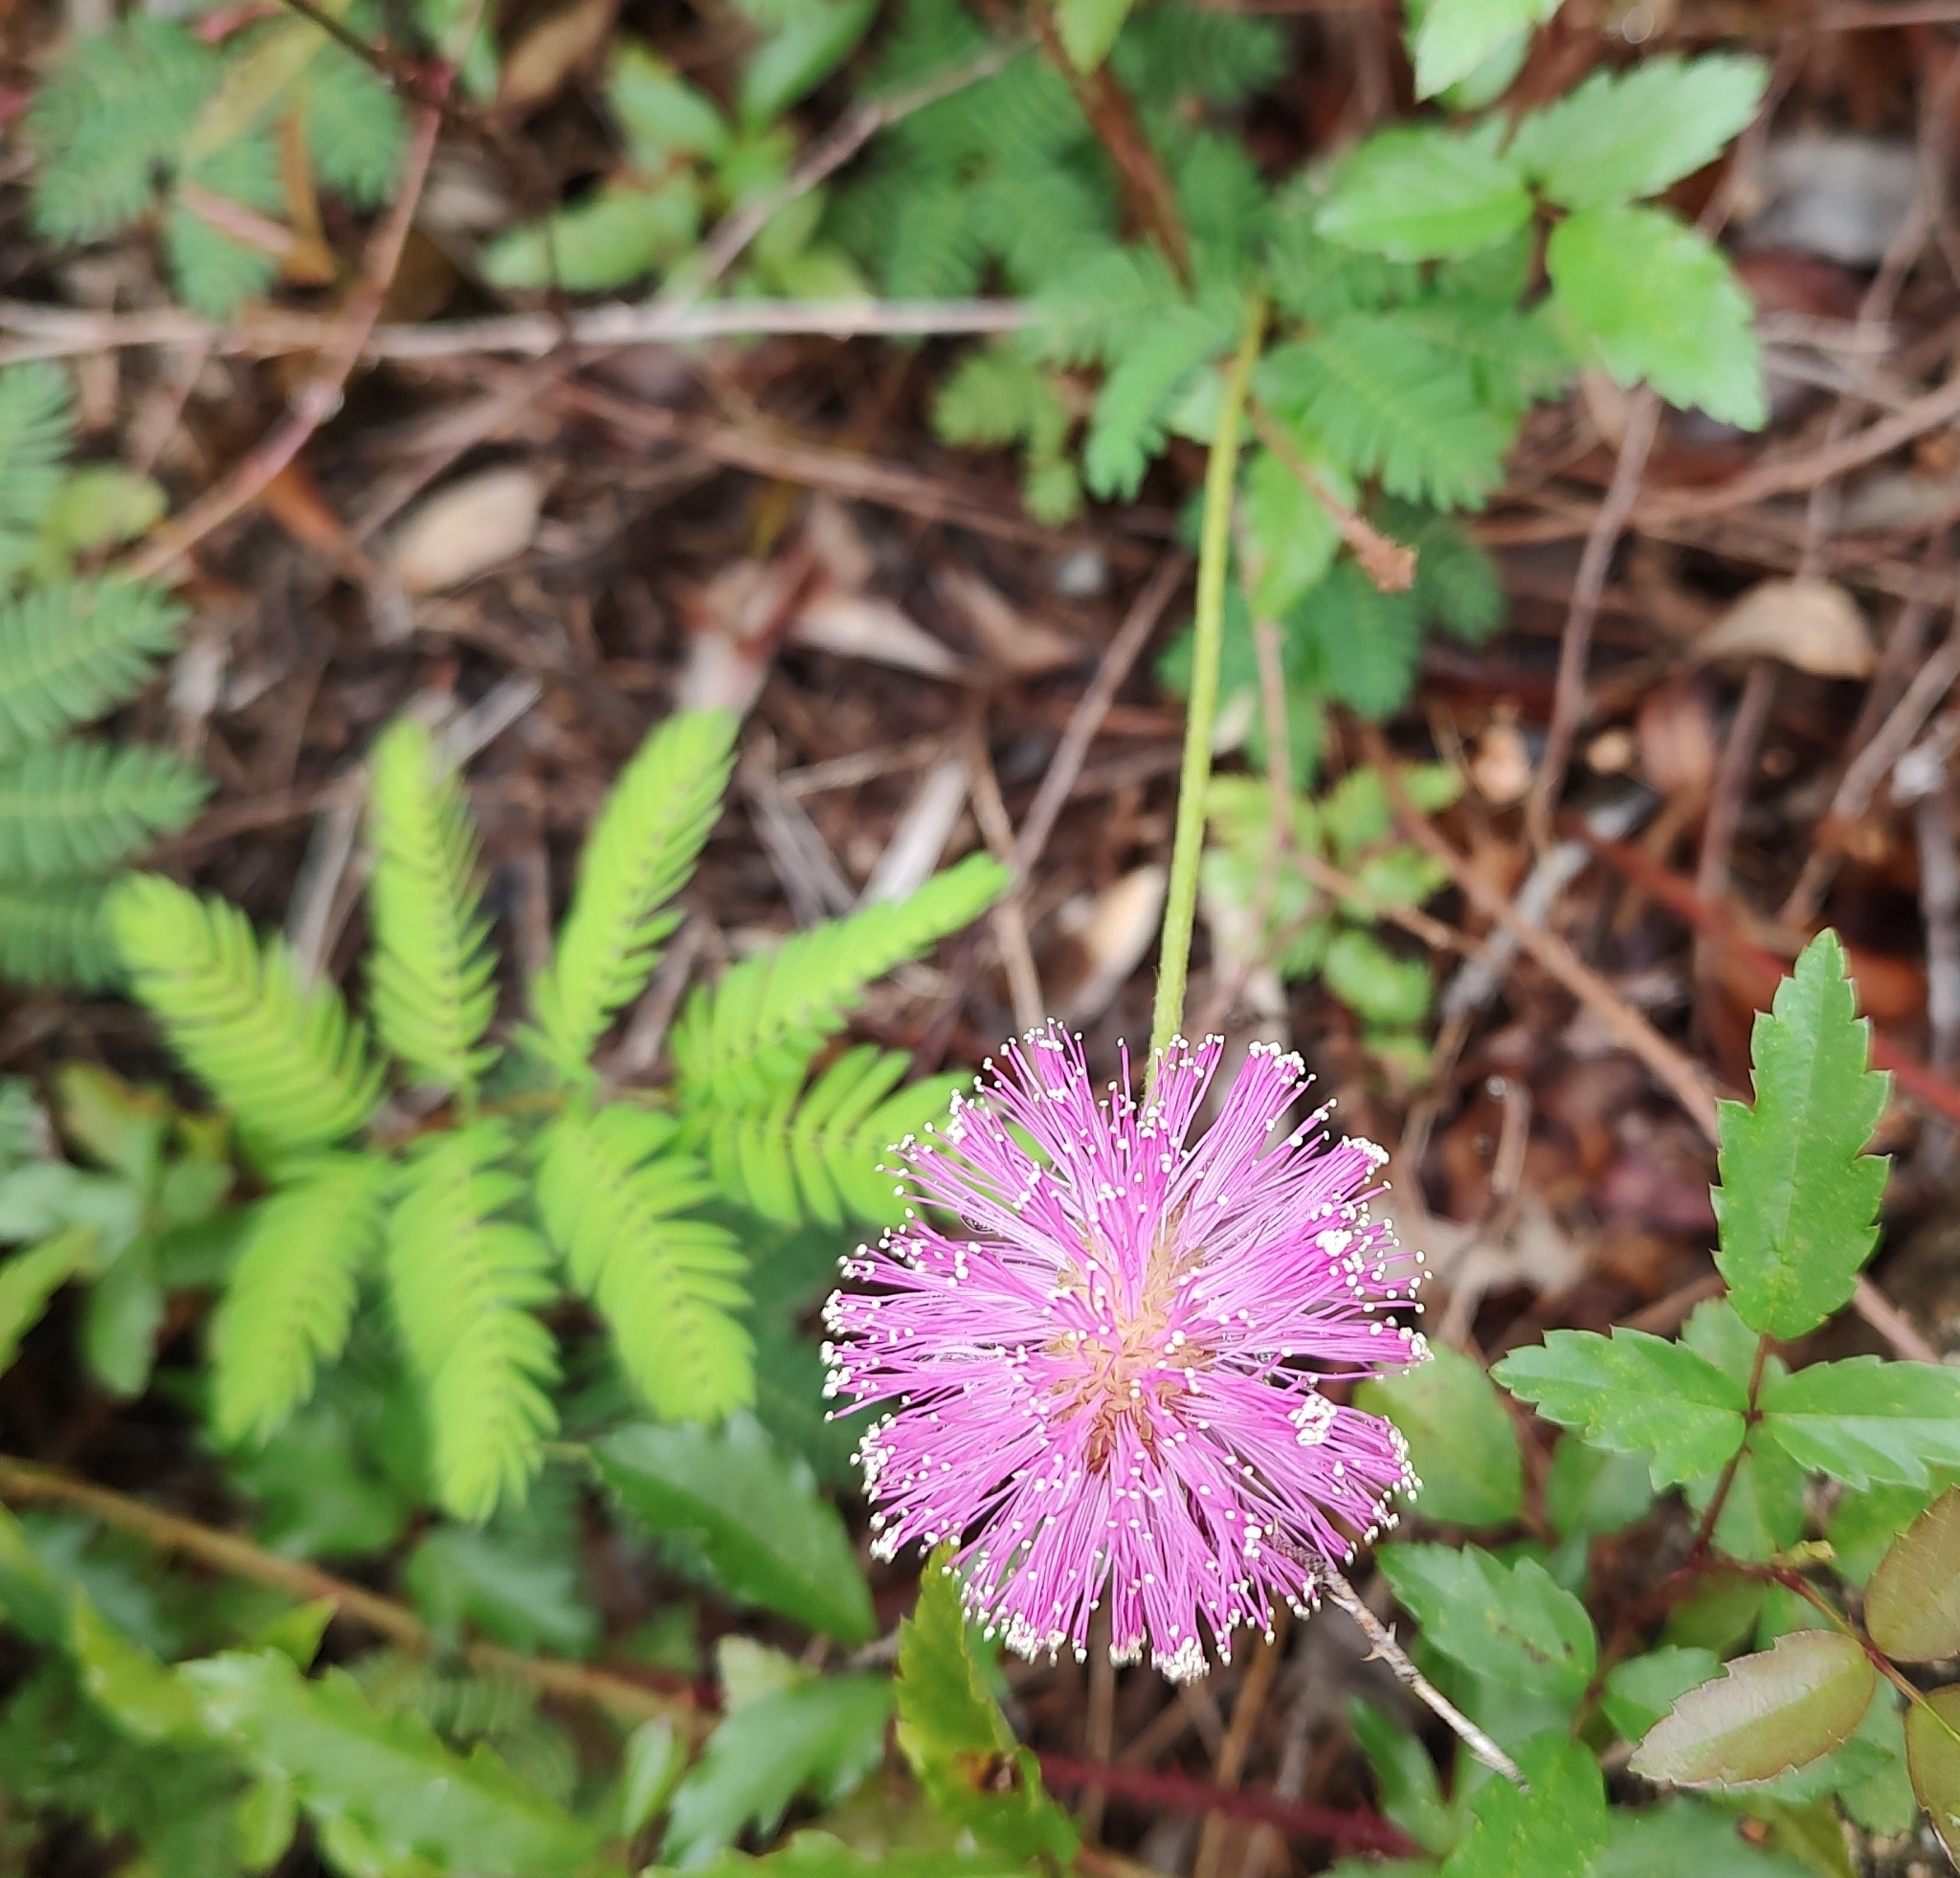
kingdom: Plantae
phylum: Tracheophyta
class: Magnoliopsida
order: Fabales
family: Fabaceae
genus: Mimosa
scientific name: Mimosa strigillosa
